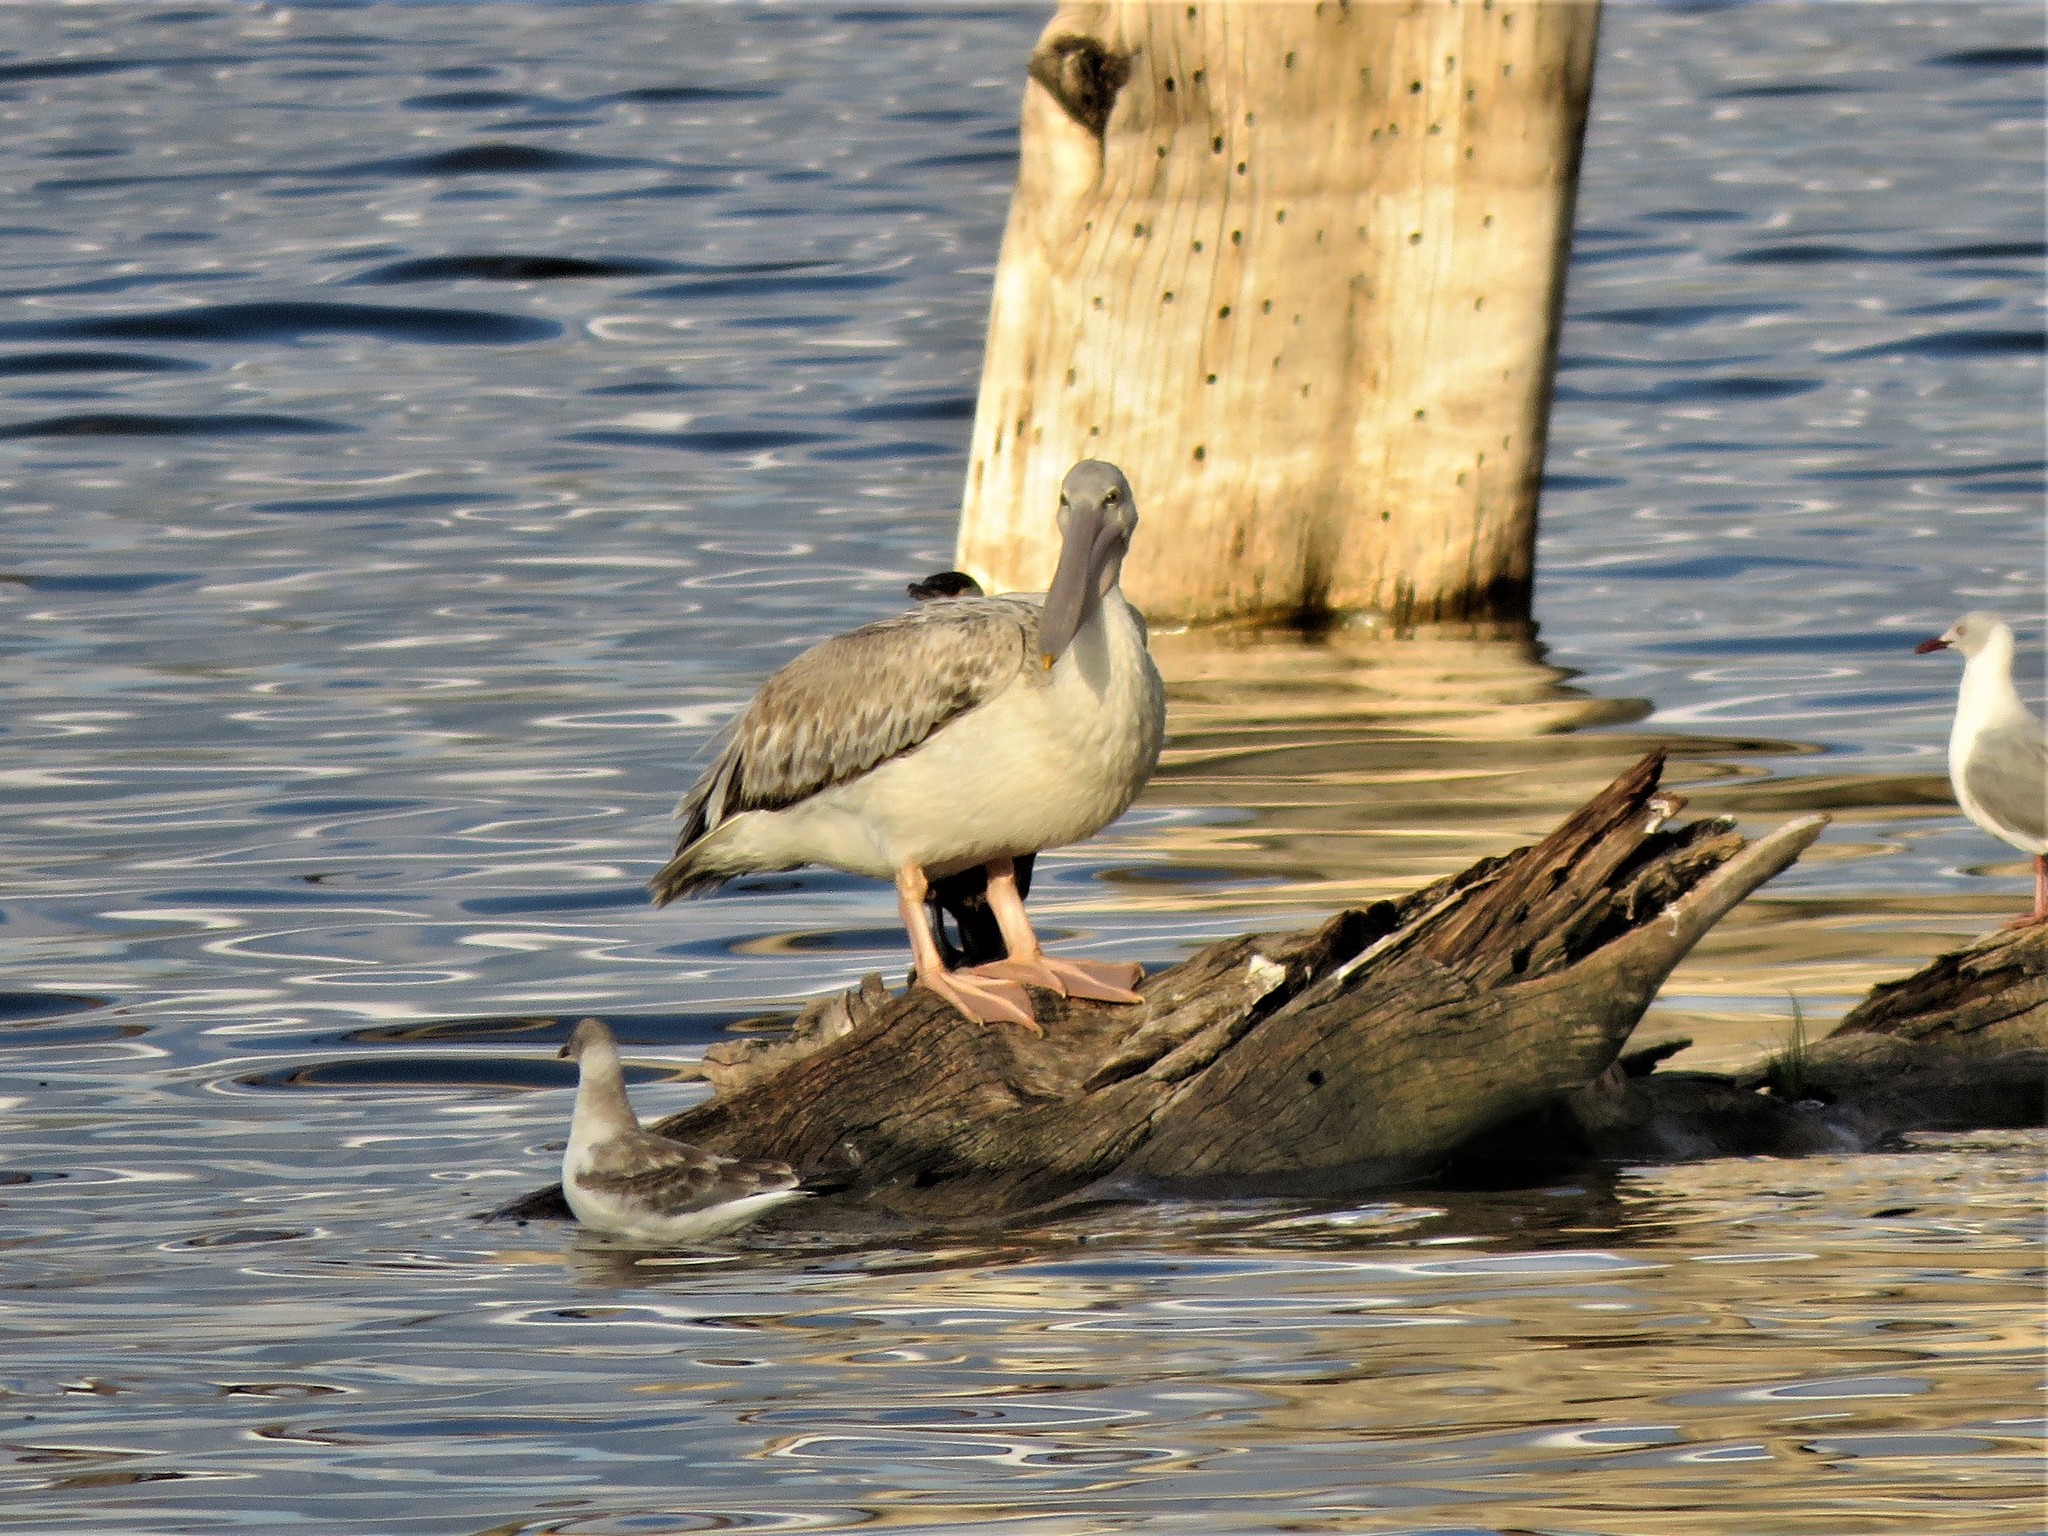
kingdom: Animalia
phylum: Chordata
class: Aves
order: Pelecaniformes
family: Pelecanidae
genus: Pelecanus
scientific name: Pelecanus rufescens
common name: Pink-backed pelican
